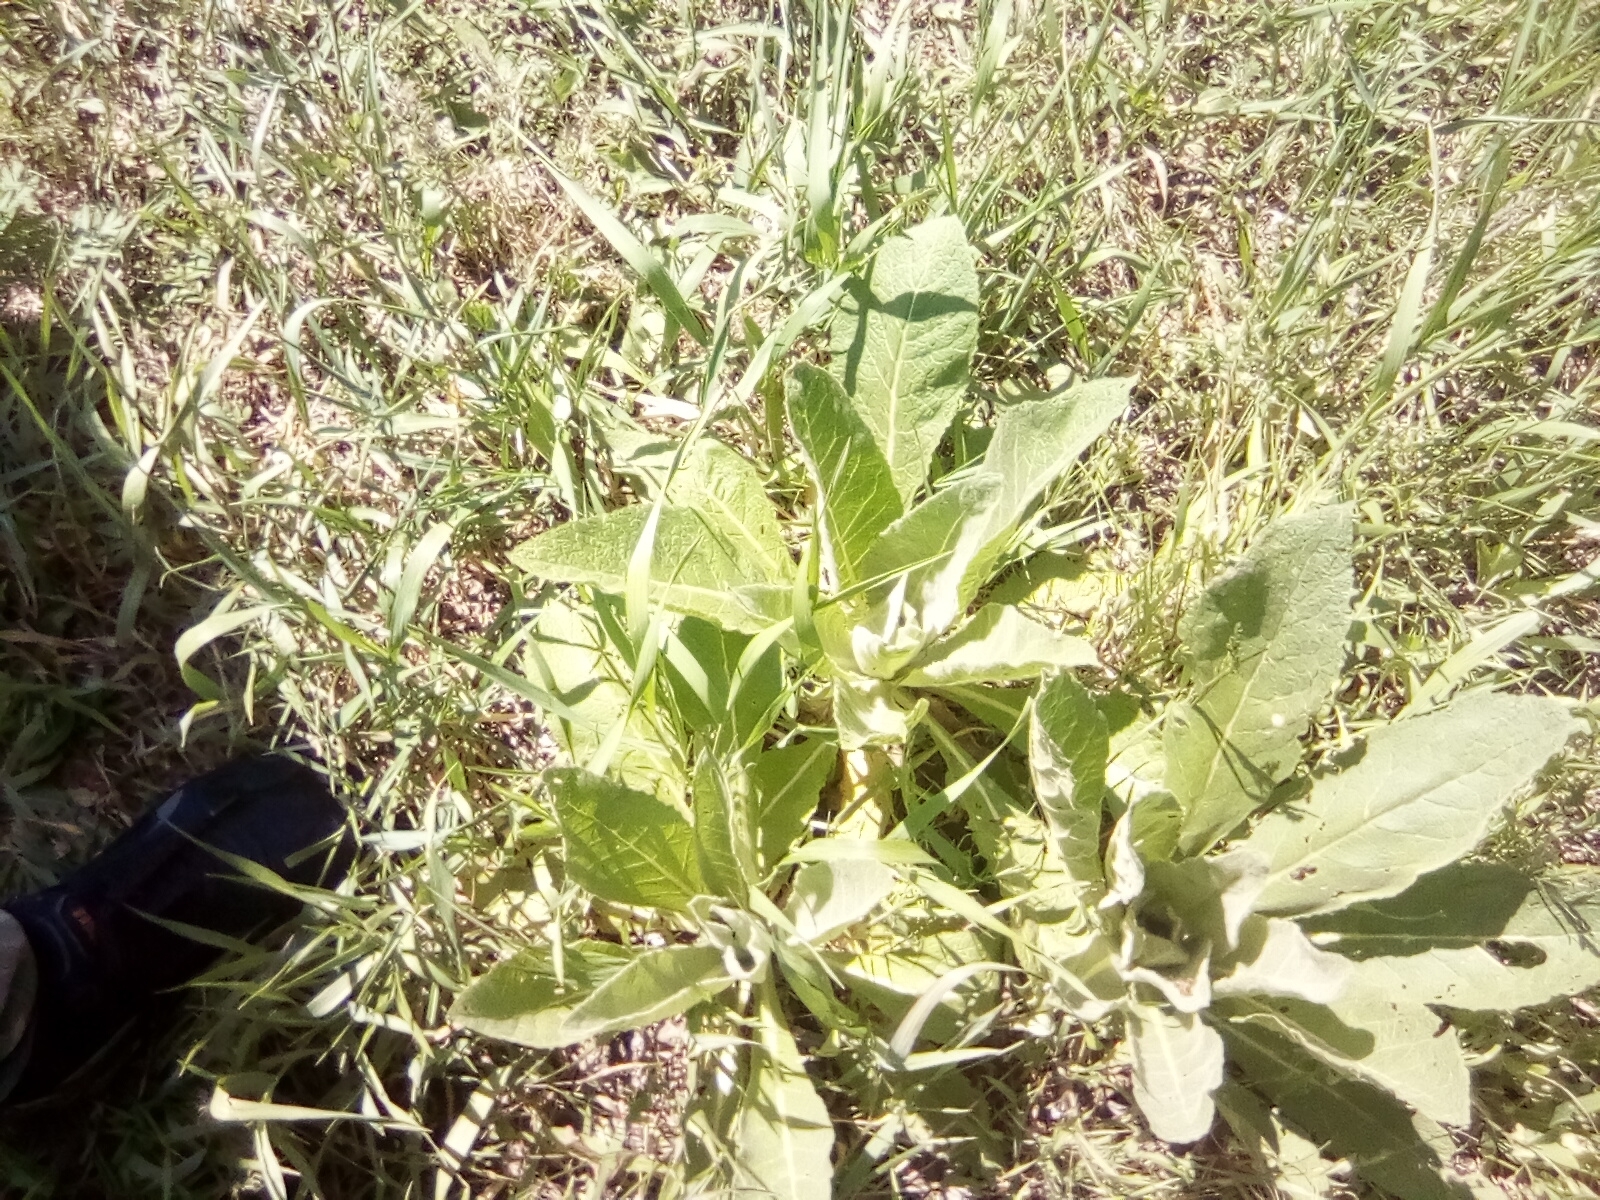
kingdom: Plantae
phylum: Tracheophyta
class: Magnoliopsida
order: Lamiales
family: Scrophulariaceae
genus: Verbascum
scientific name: Verbascum lychnitis
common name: White mullein
